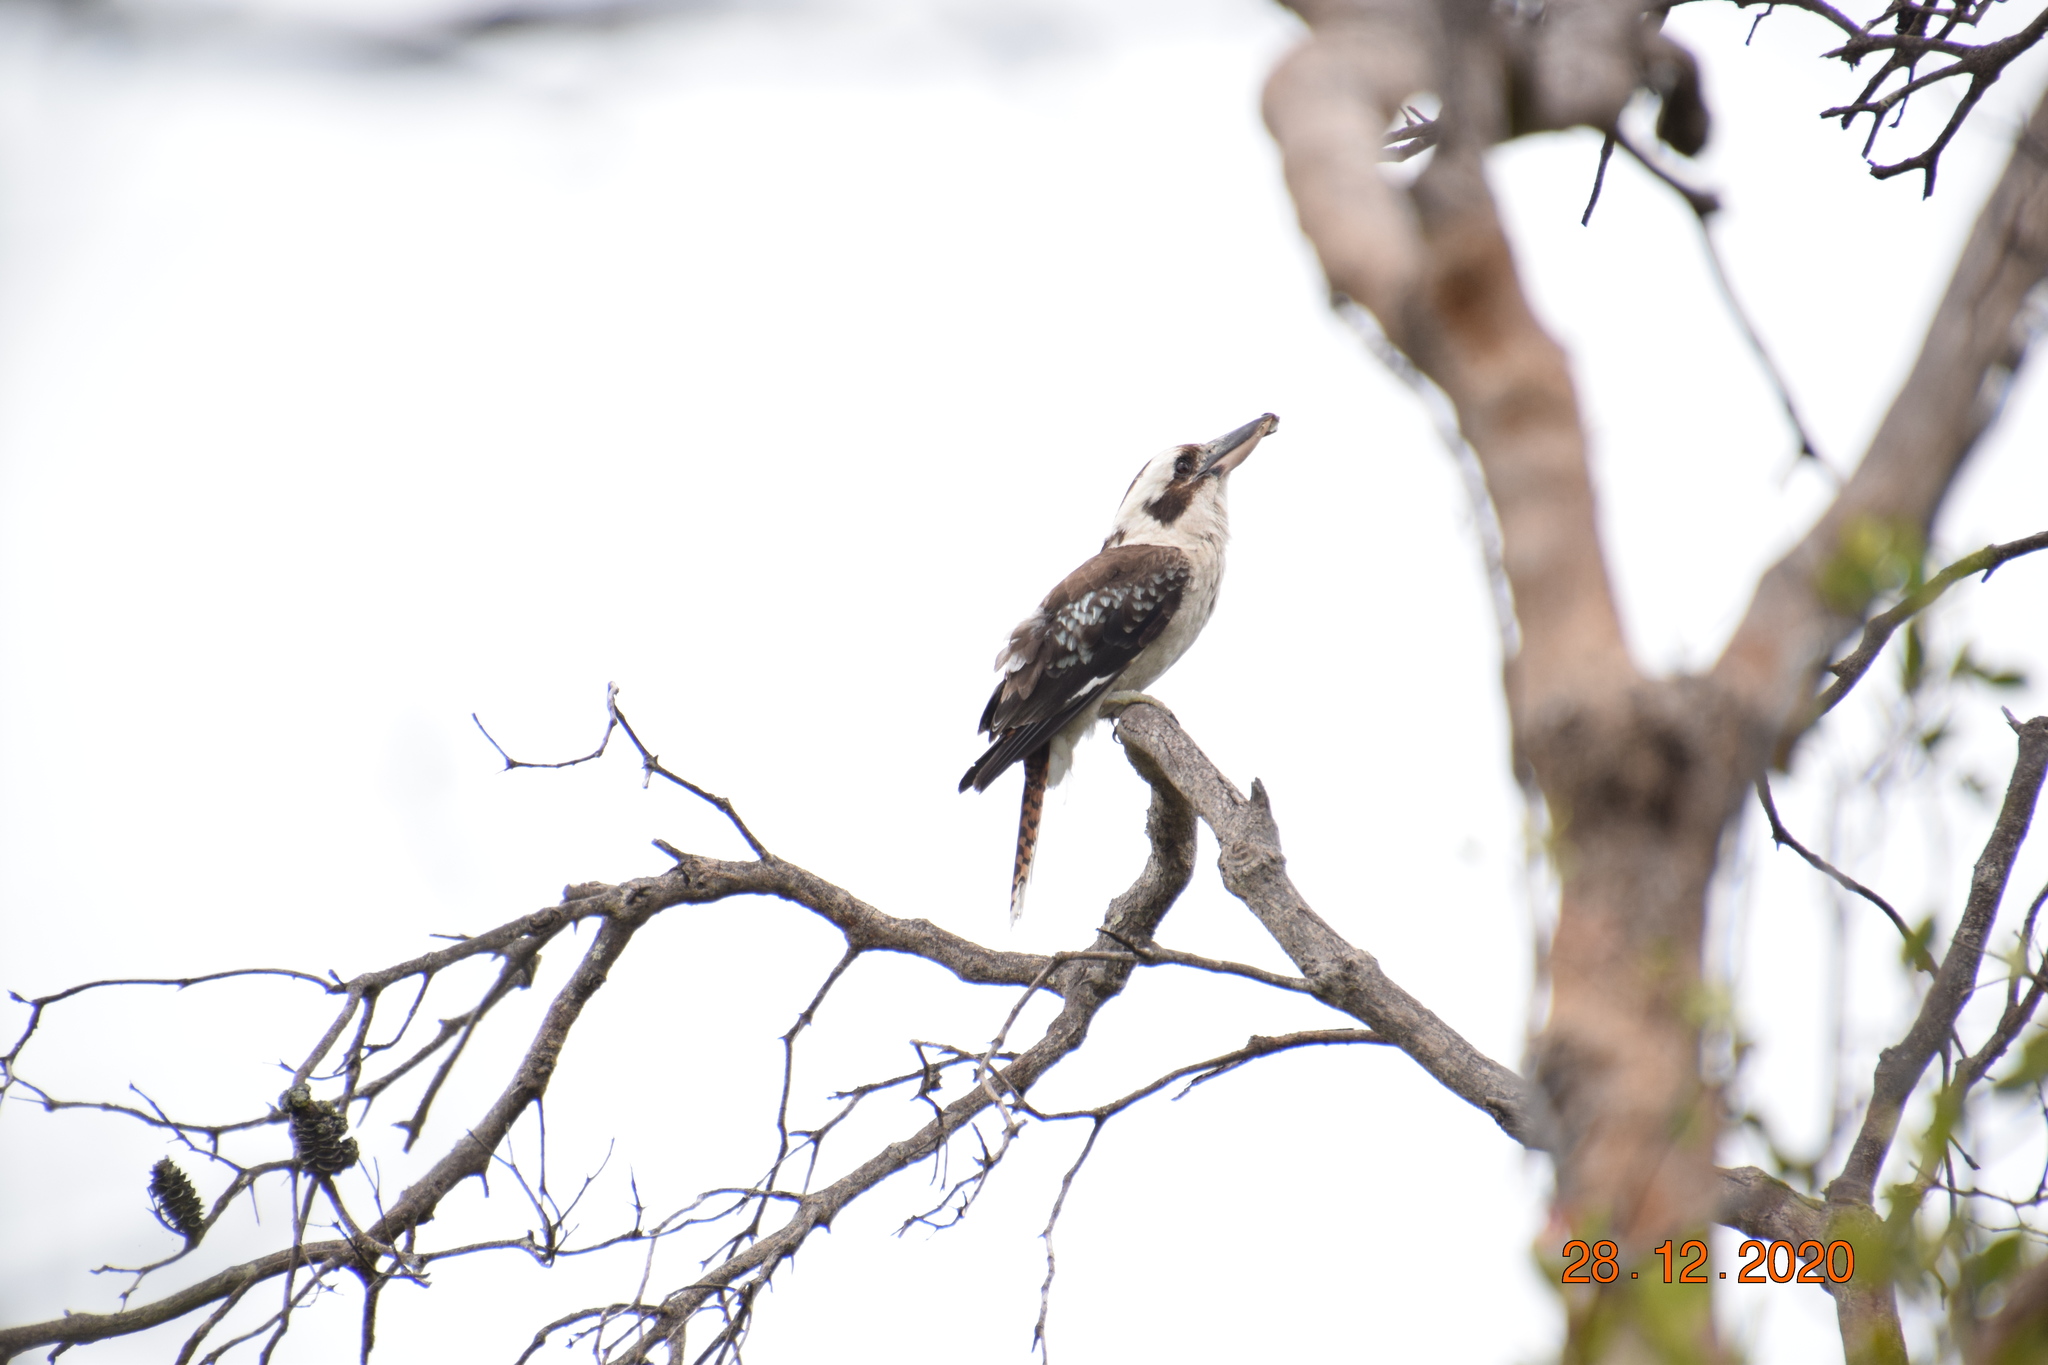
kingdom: Animalia
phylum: Chordata
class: Aves
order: Coraciiformes
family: Alcedinidae
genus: Dacelo
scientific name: Dacelo novaeguineae
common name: Laughing kookaburra
